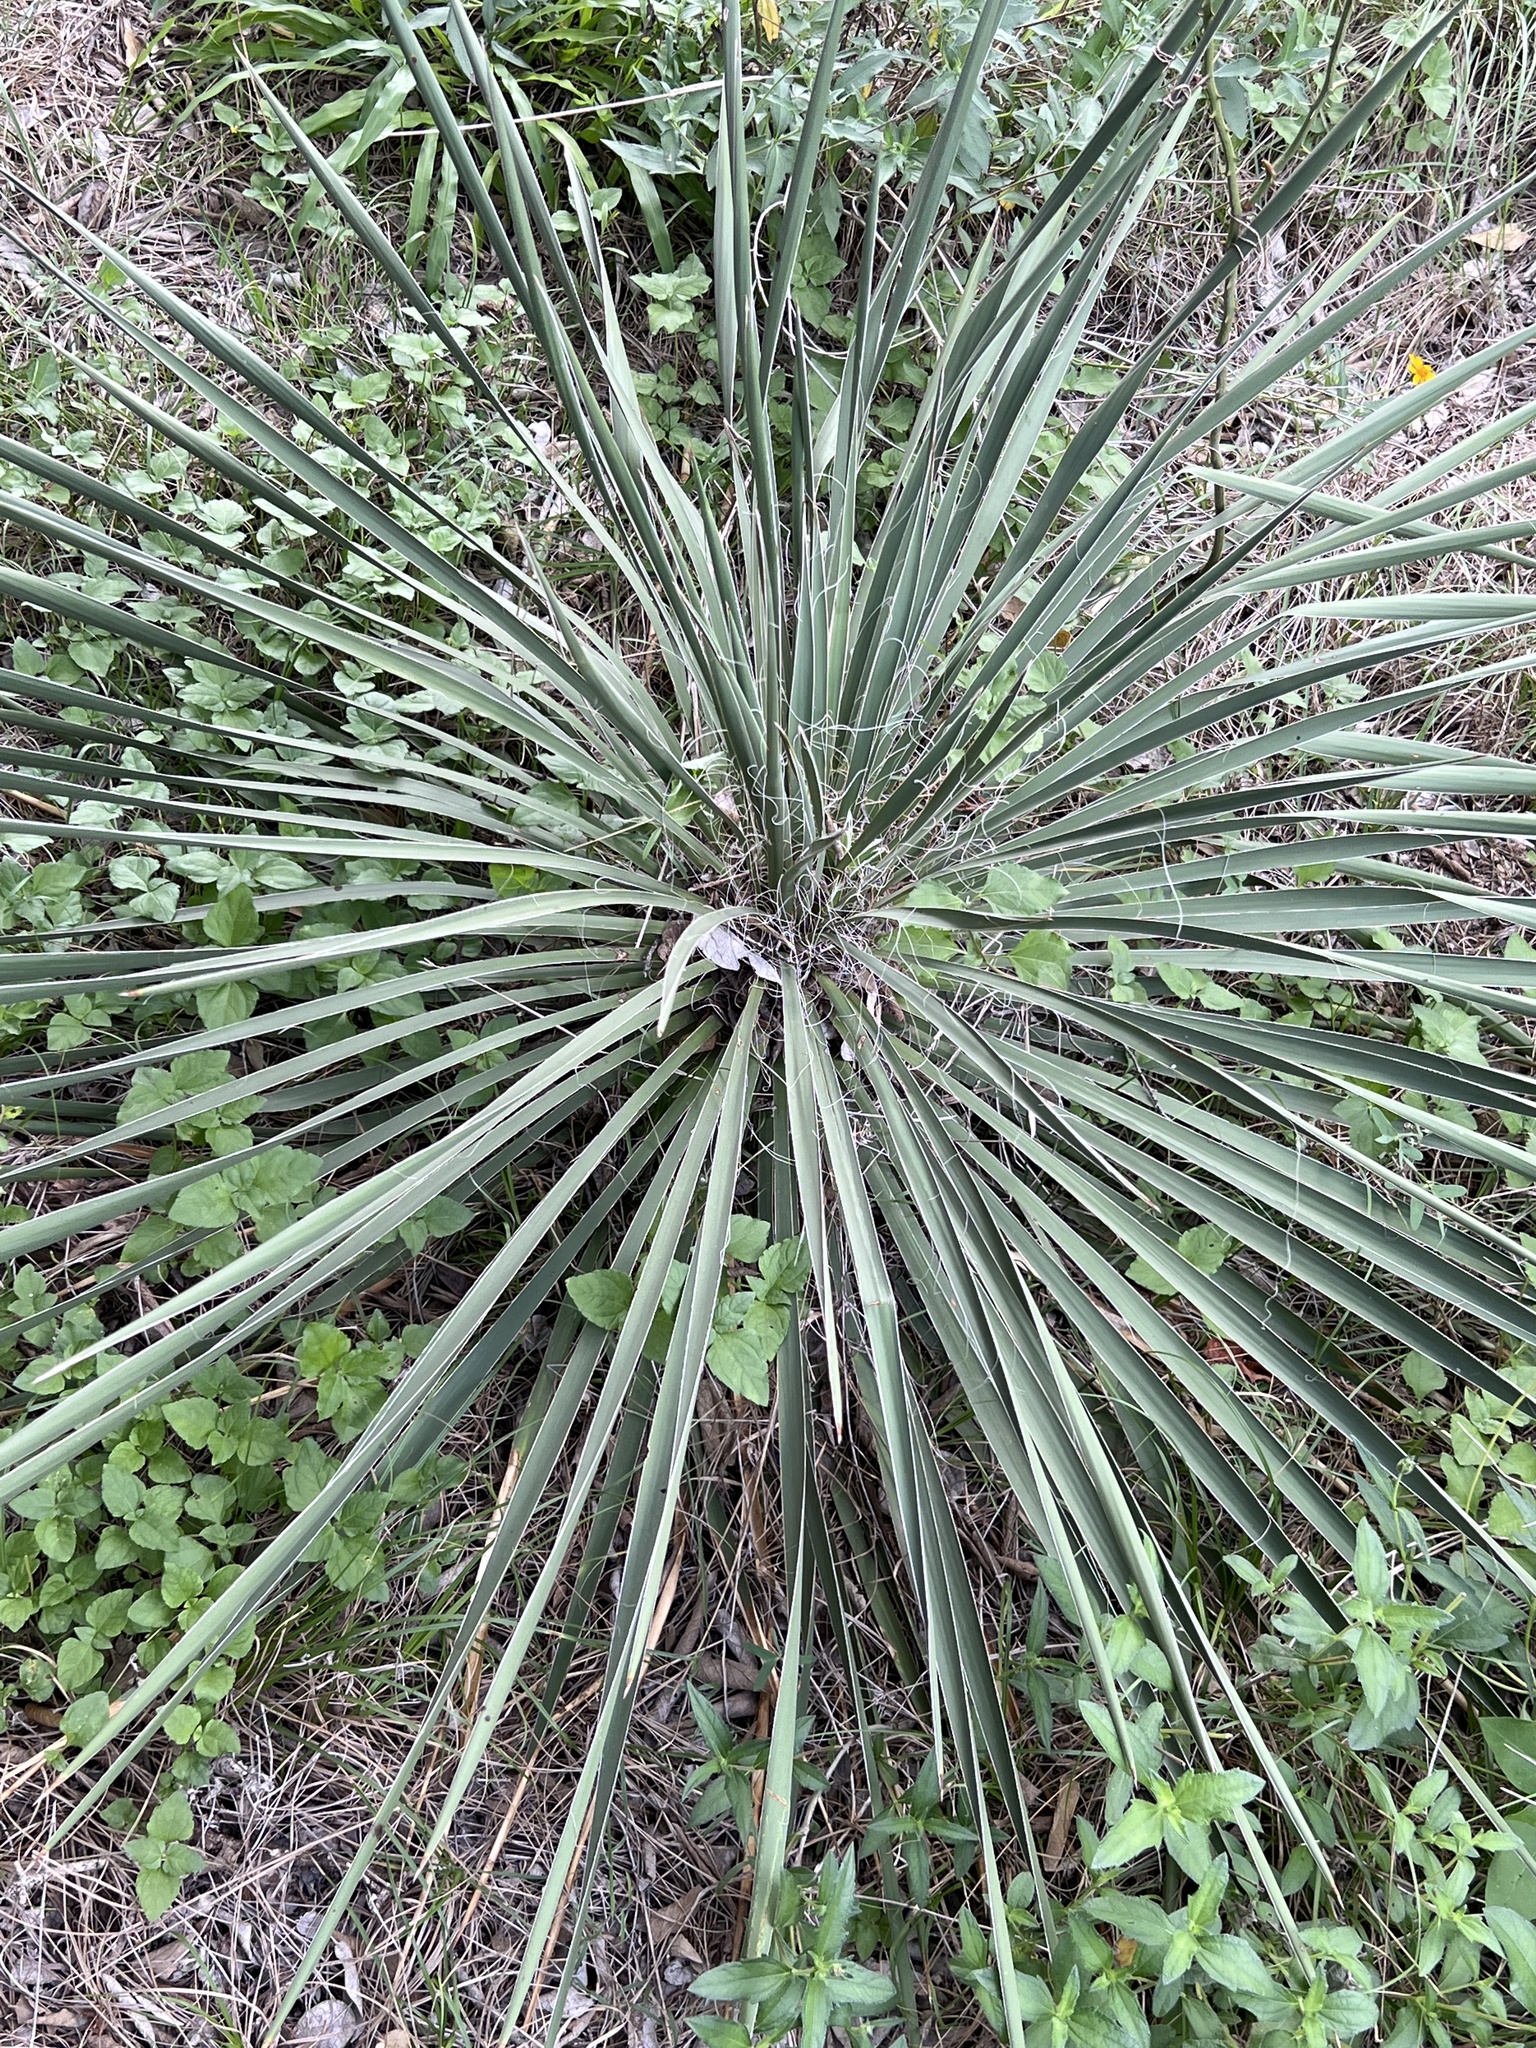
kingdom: Plantae
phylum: Tracheophyta
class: Liliopsida
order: Asparagales
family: Asparagaceae
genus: Yucca
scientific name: Yucca constricta
